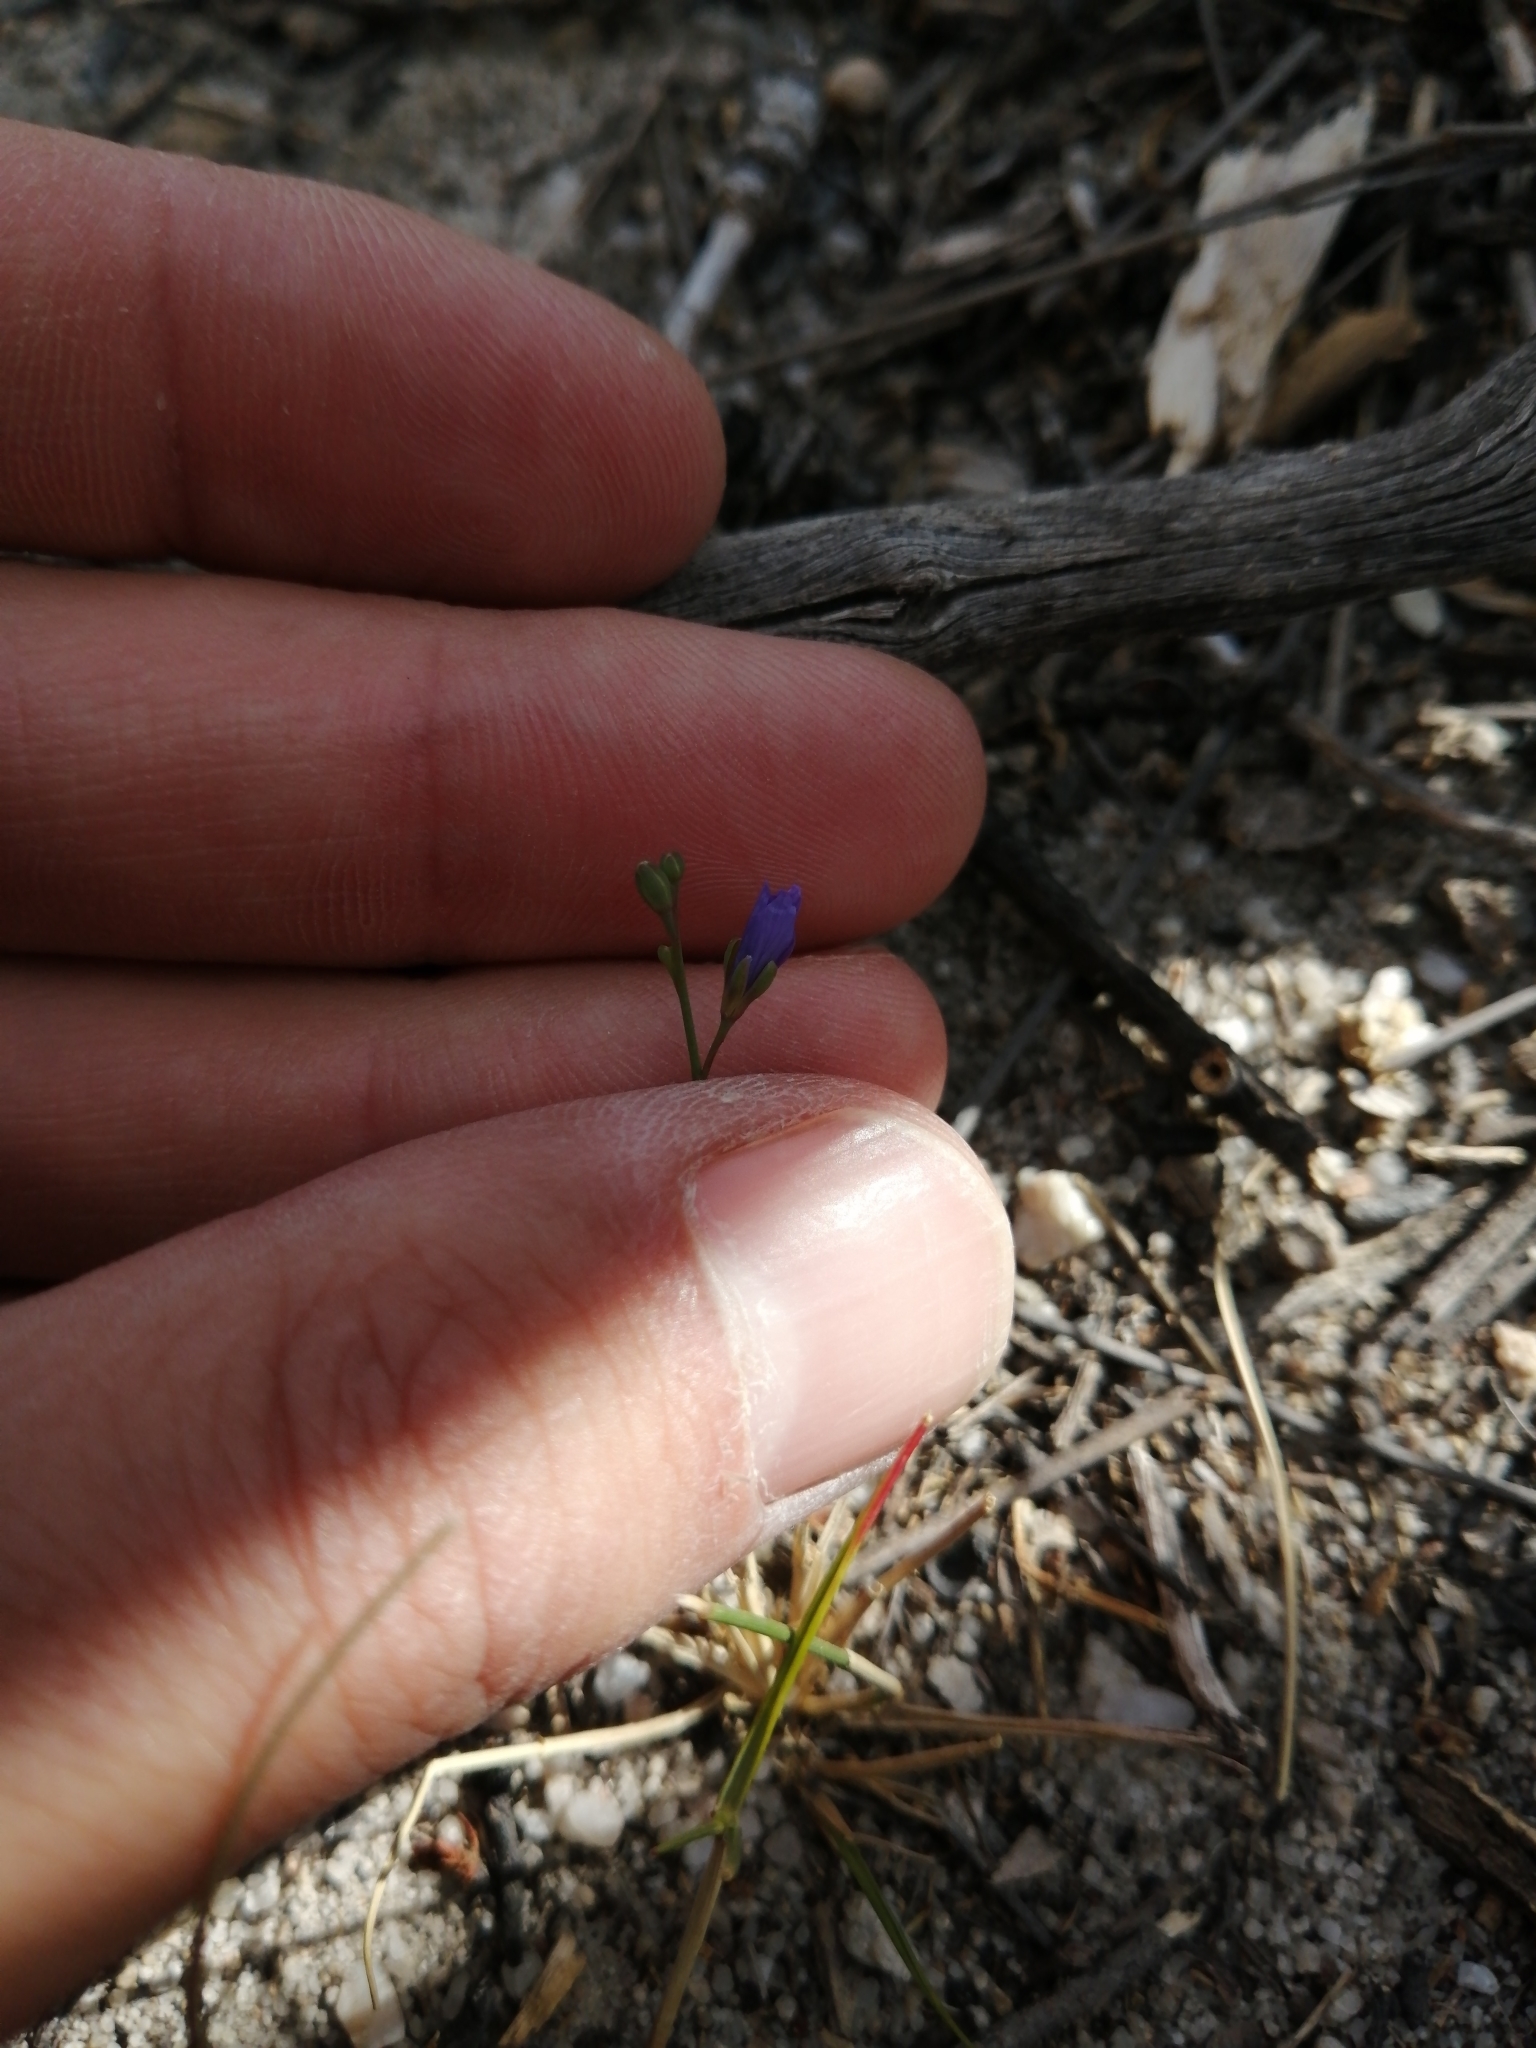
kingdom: Plantae
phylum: Tracheophyta
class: Magnoliopsida
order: Brassicales
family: Brassicaceae
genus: Heliophila
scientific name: Heliophila bulbostyla
